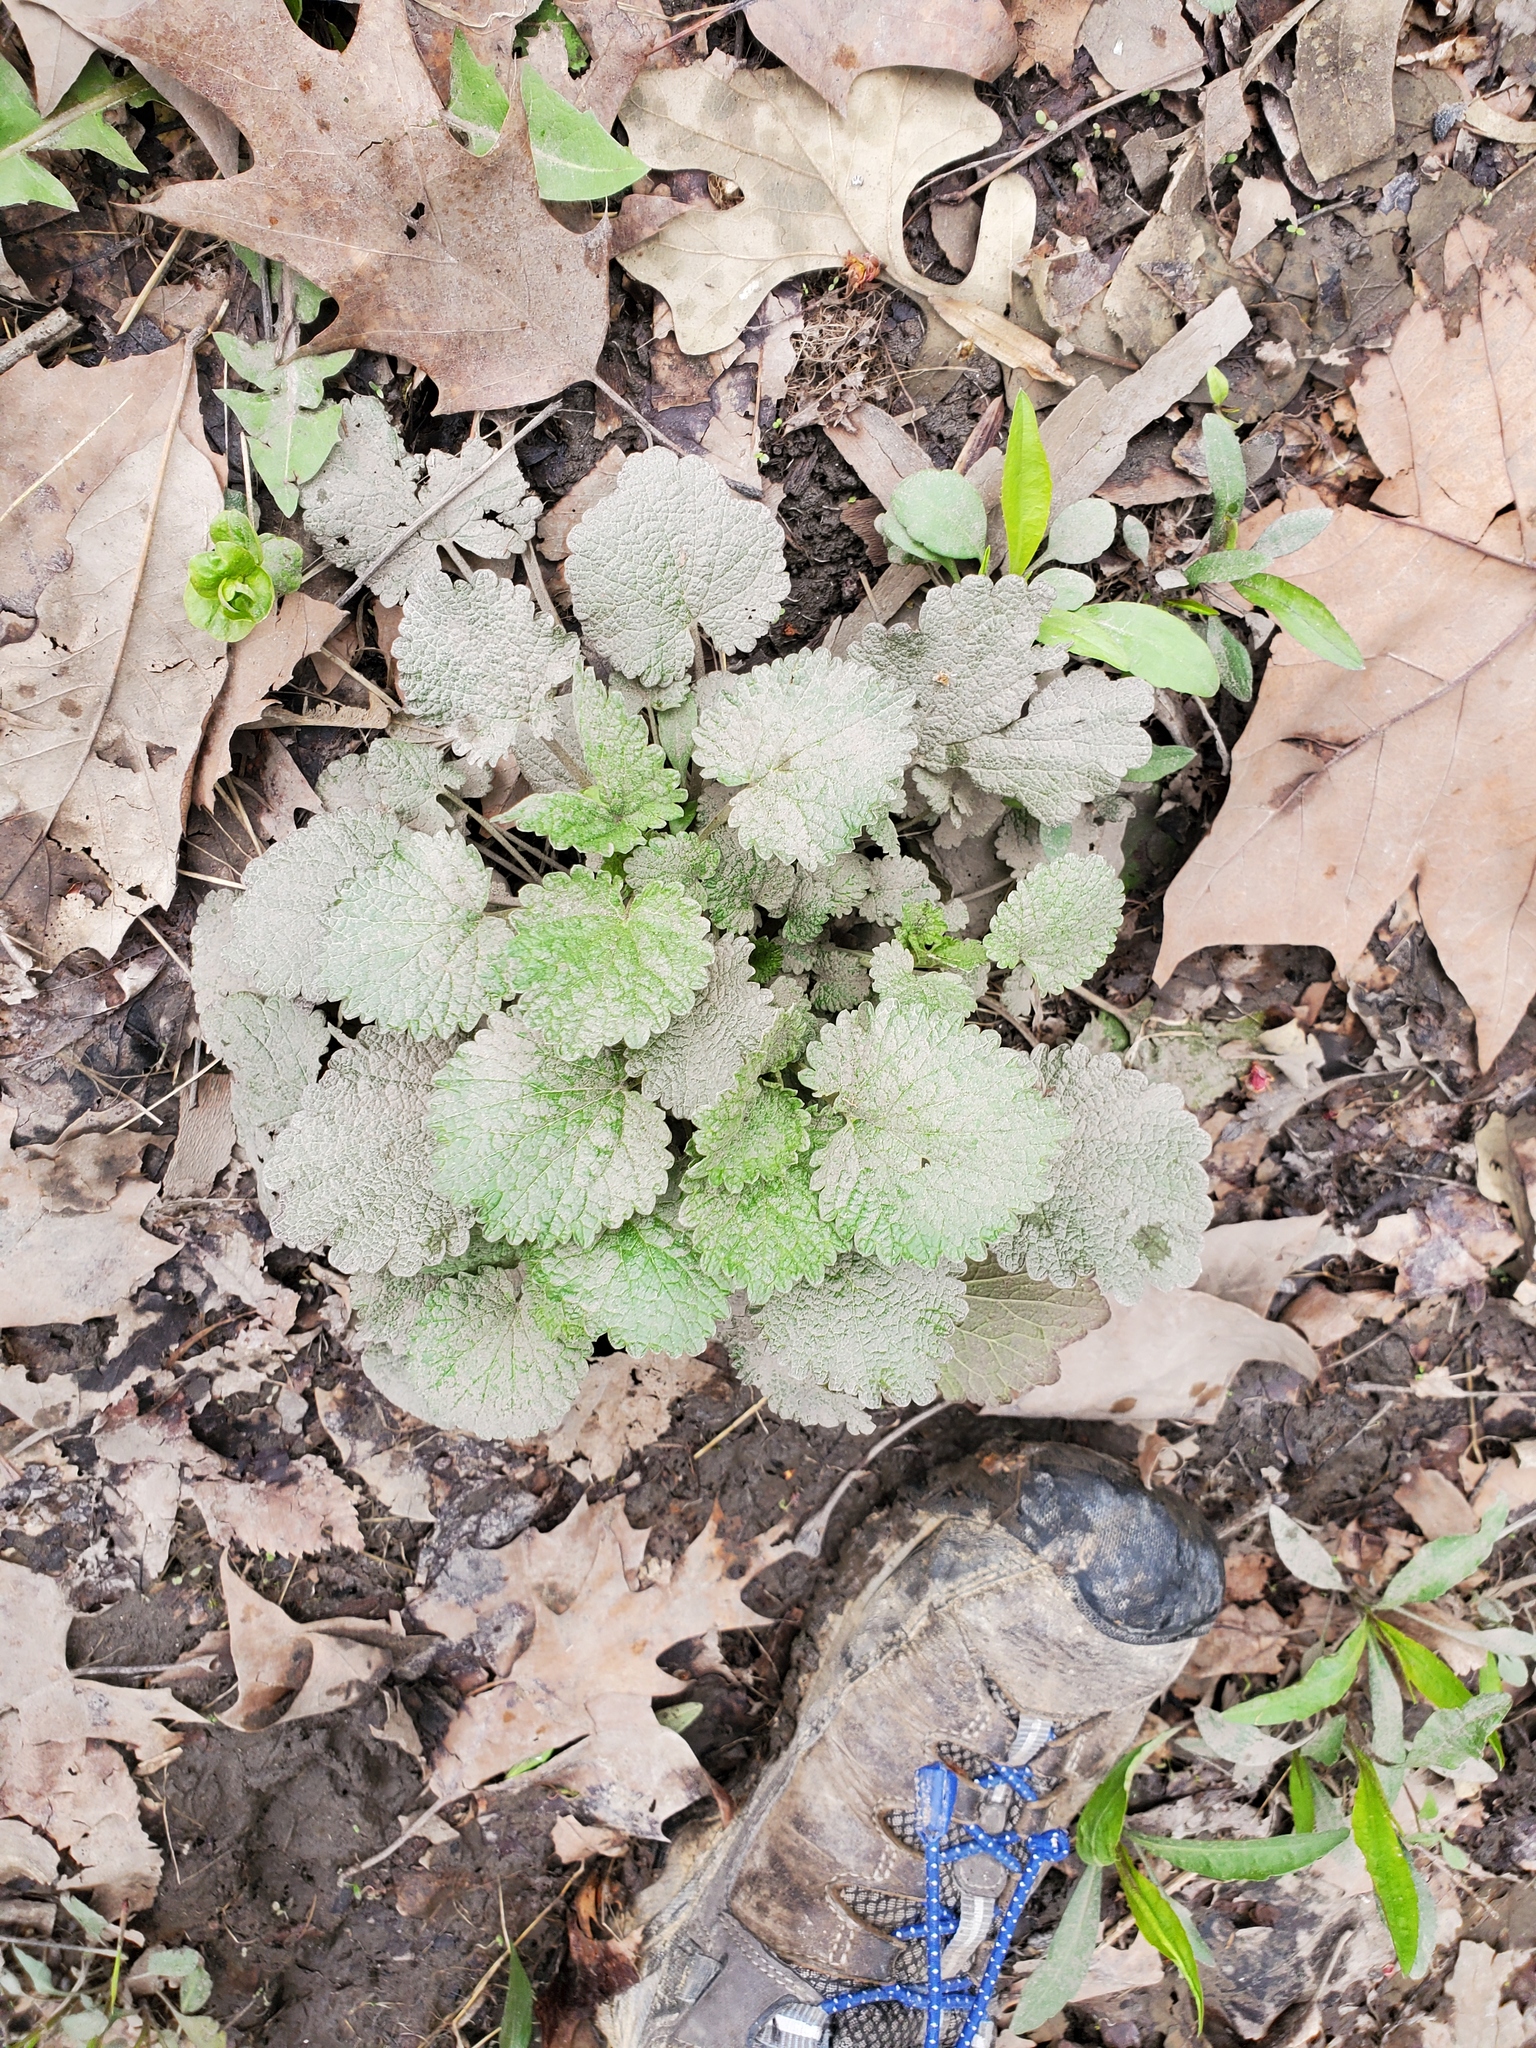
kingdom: Plantae
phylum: Tracheophyta
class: Magnoliopsida
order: Brassicales
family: Brassicaceae
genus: Alliaria
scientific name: Alliaria petiolata
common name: Garlic mustard
